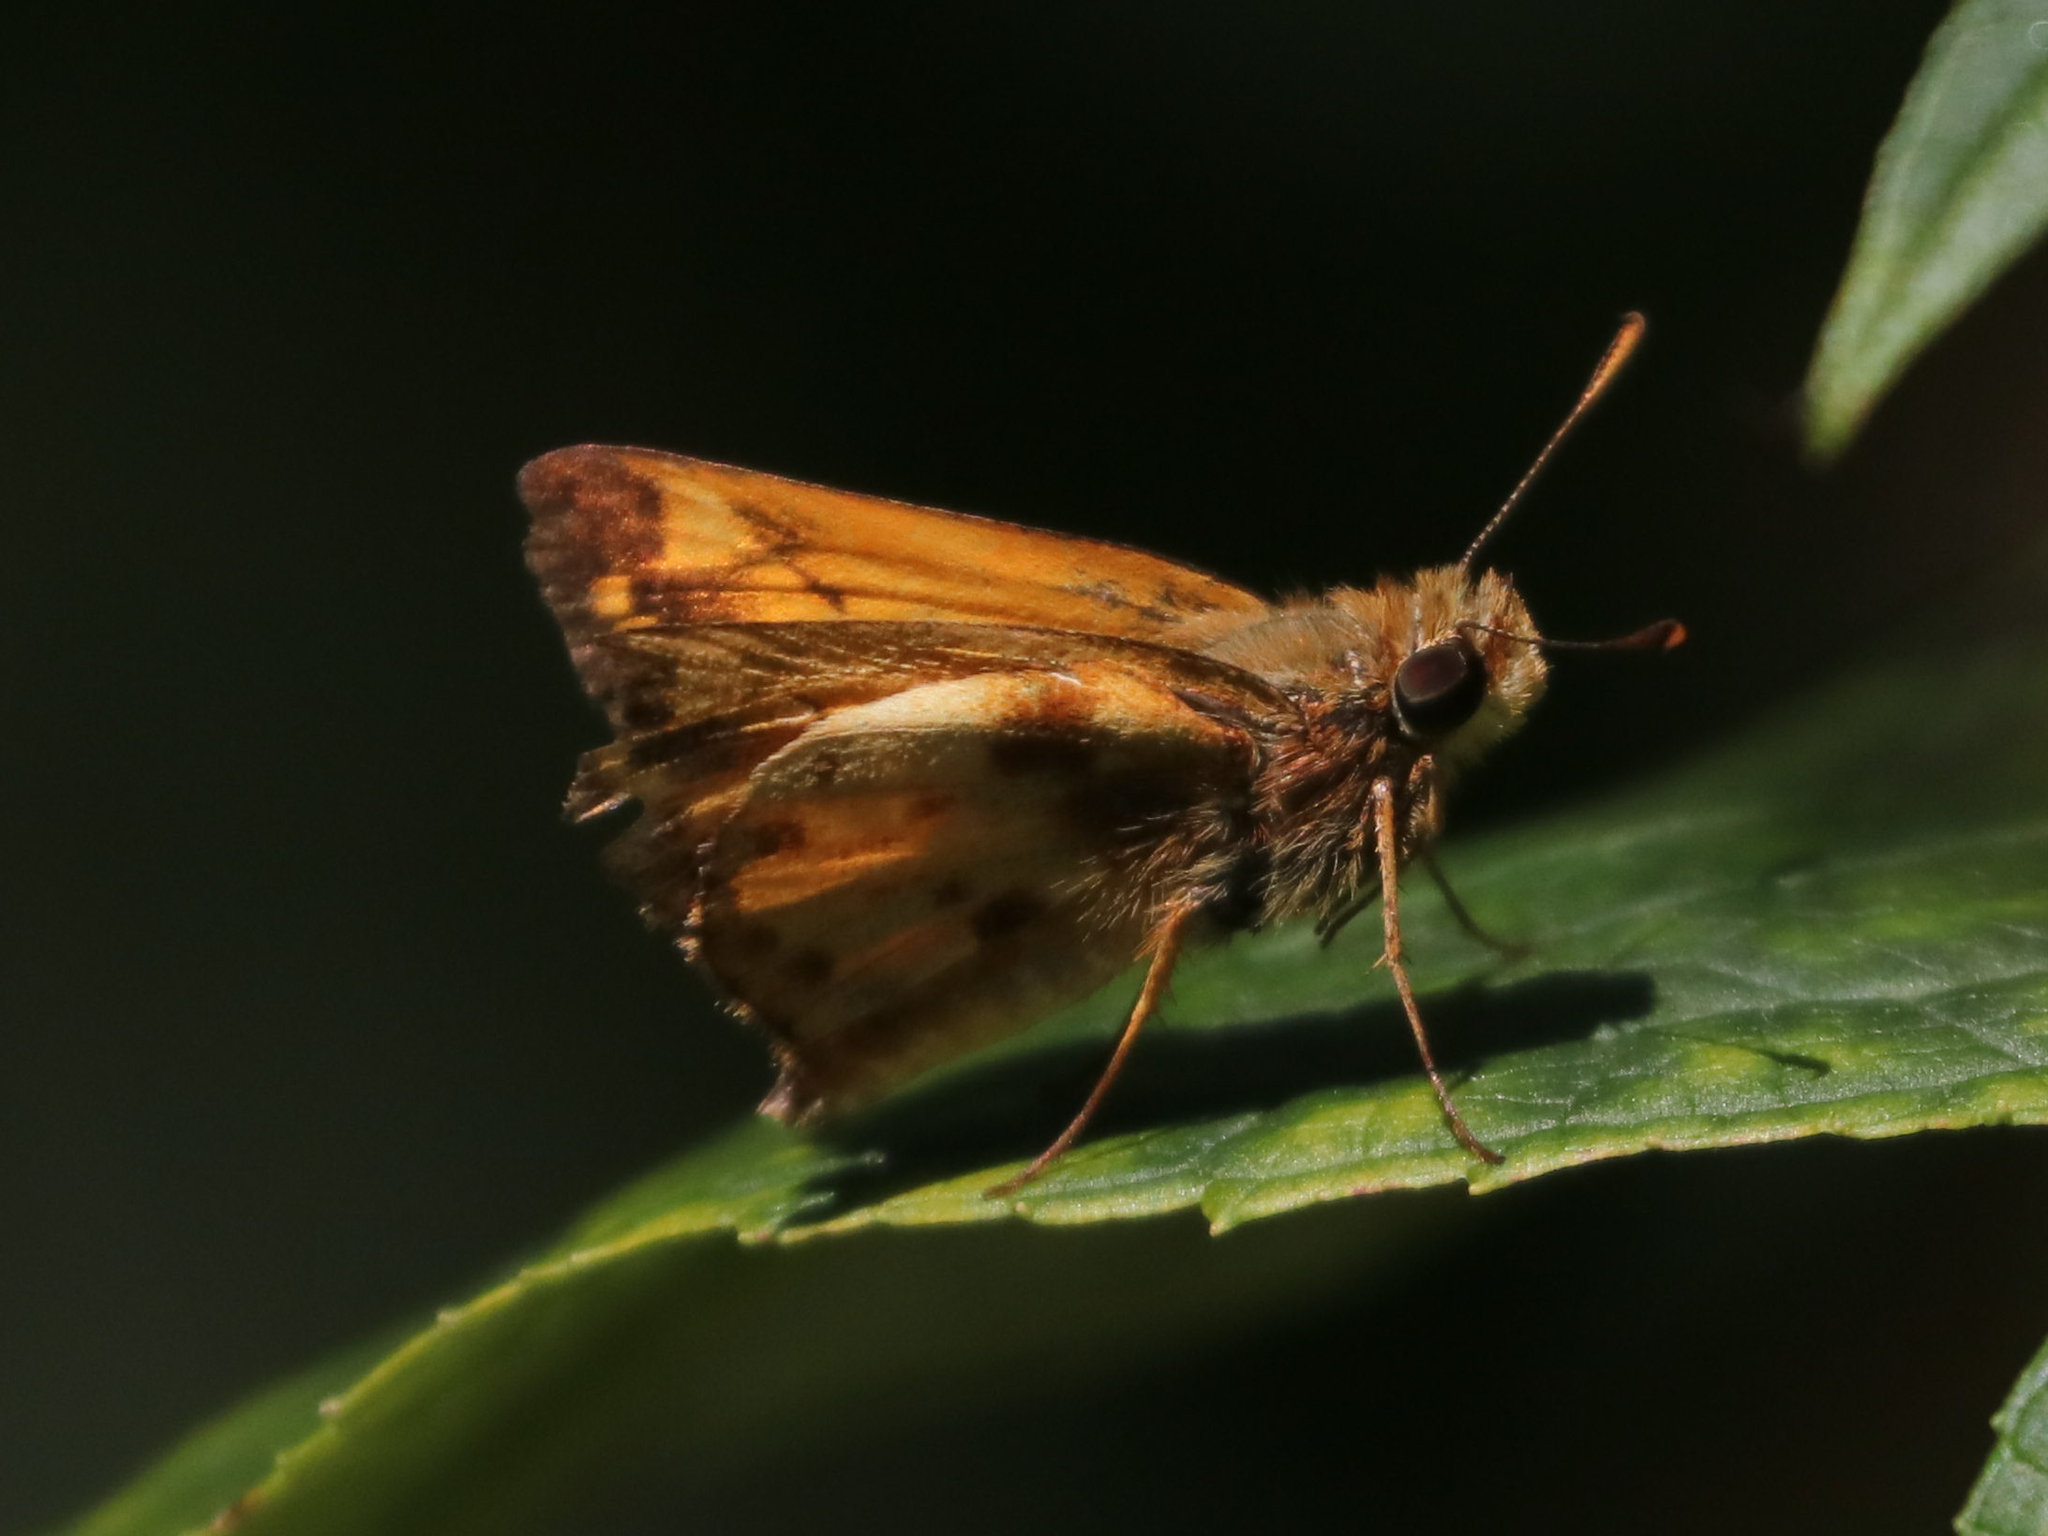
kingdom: Animalia
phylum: Arthropoda
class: Insecta
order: Lepidoptera
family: Hesperiidae
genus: Lon
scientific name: Lon zabulon
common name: Zabulon skipper
